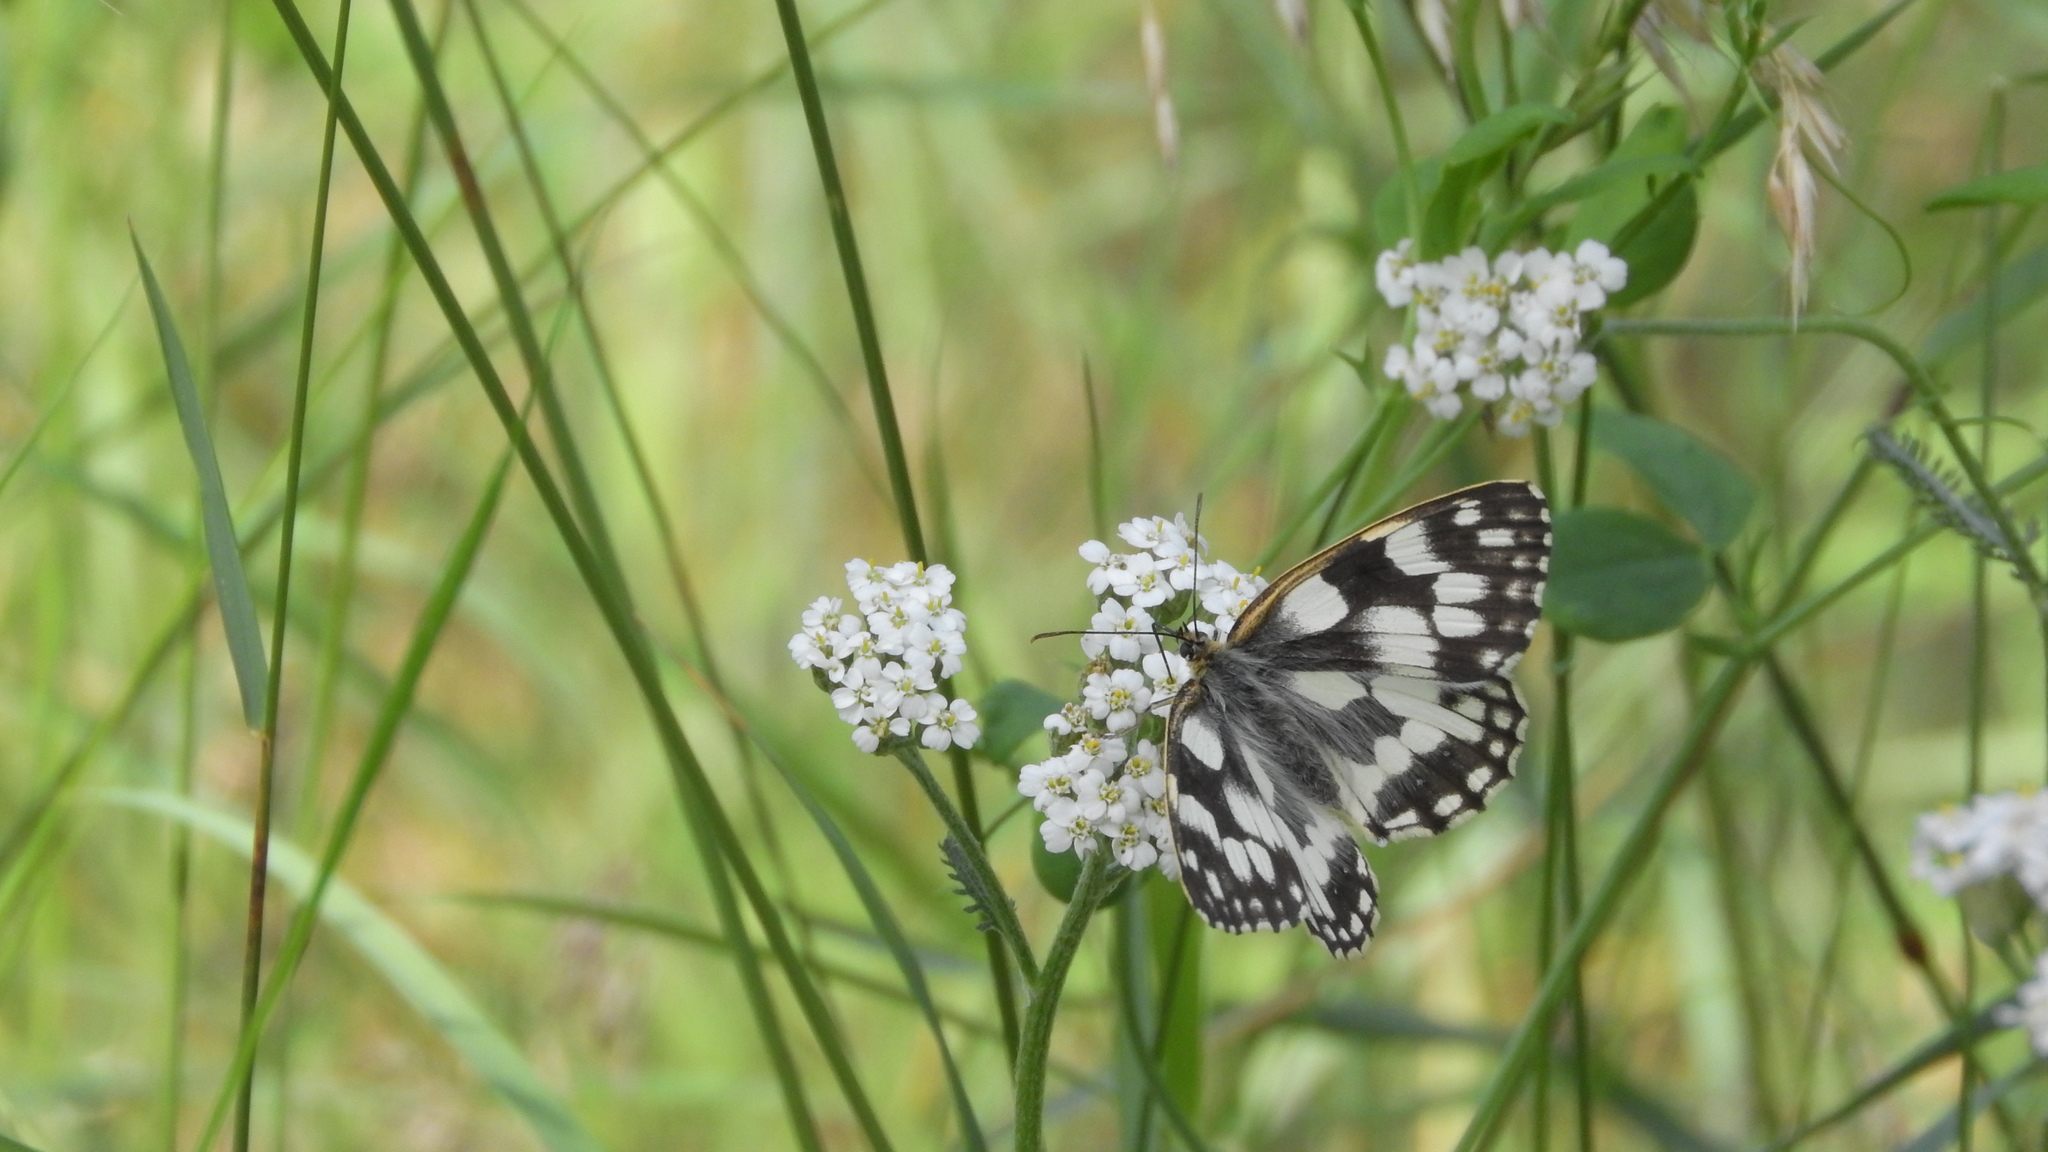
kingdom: Animalia
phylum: Arthropoda
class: Insecta
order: Lepidoptera
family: Nymphalidae
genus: Melanargia
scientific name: Melanargia galathea
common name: Marbled white
